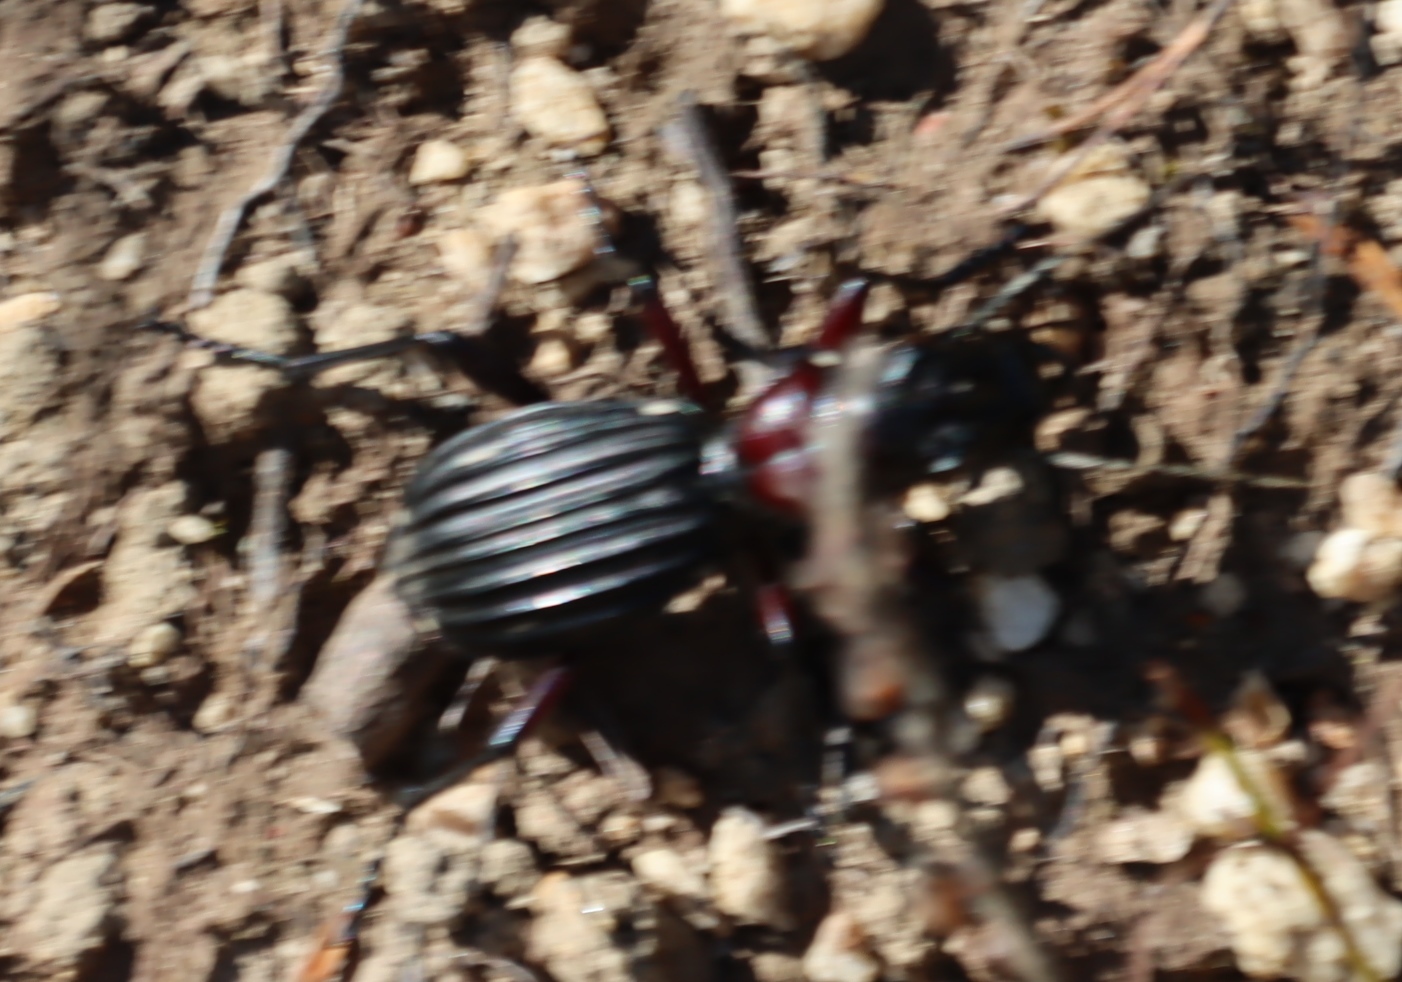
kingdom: Animalia
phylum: Arthropoda
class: Insecta
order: Coleoptera
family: Carabidae
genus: Anthia
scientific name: Anthia decemguttata
